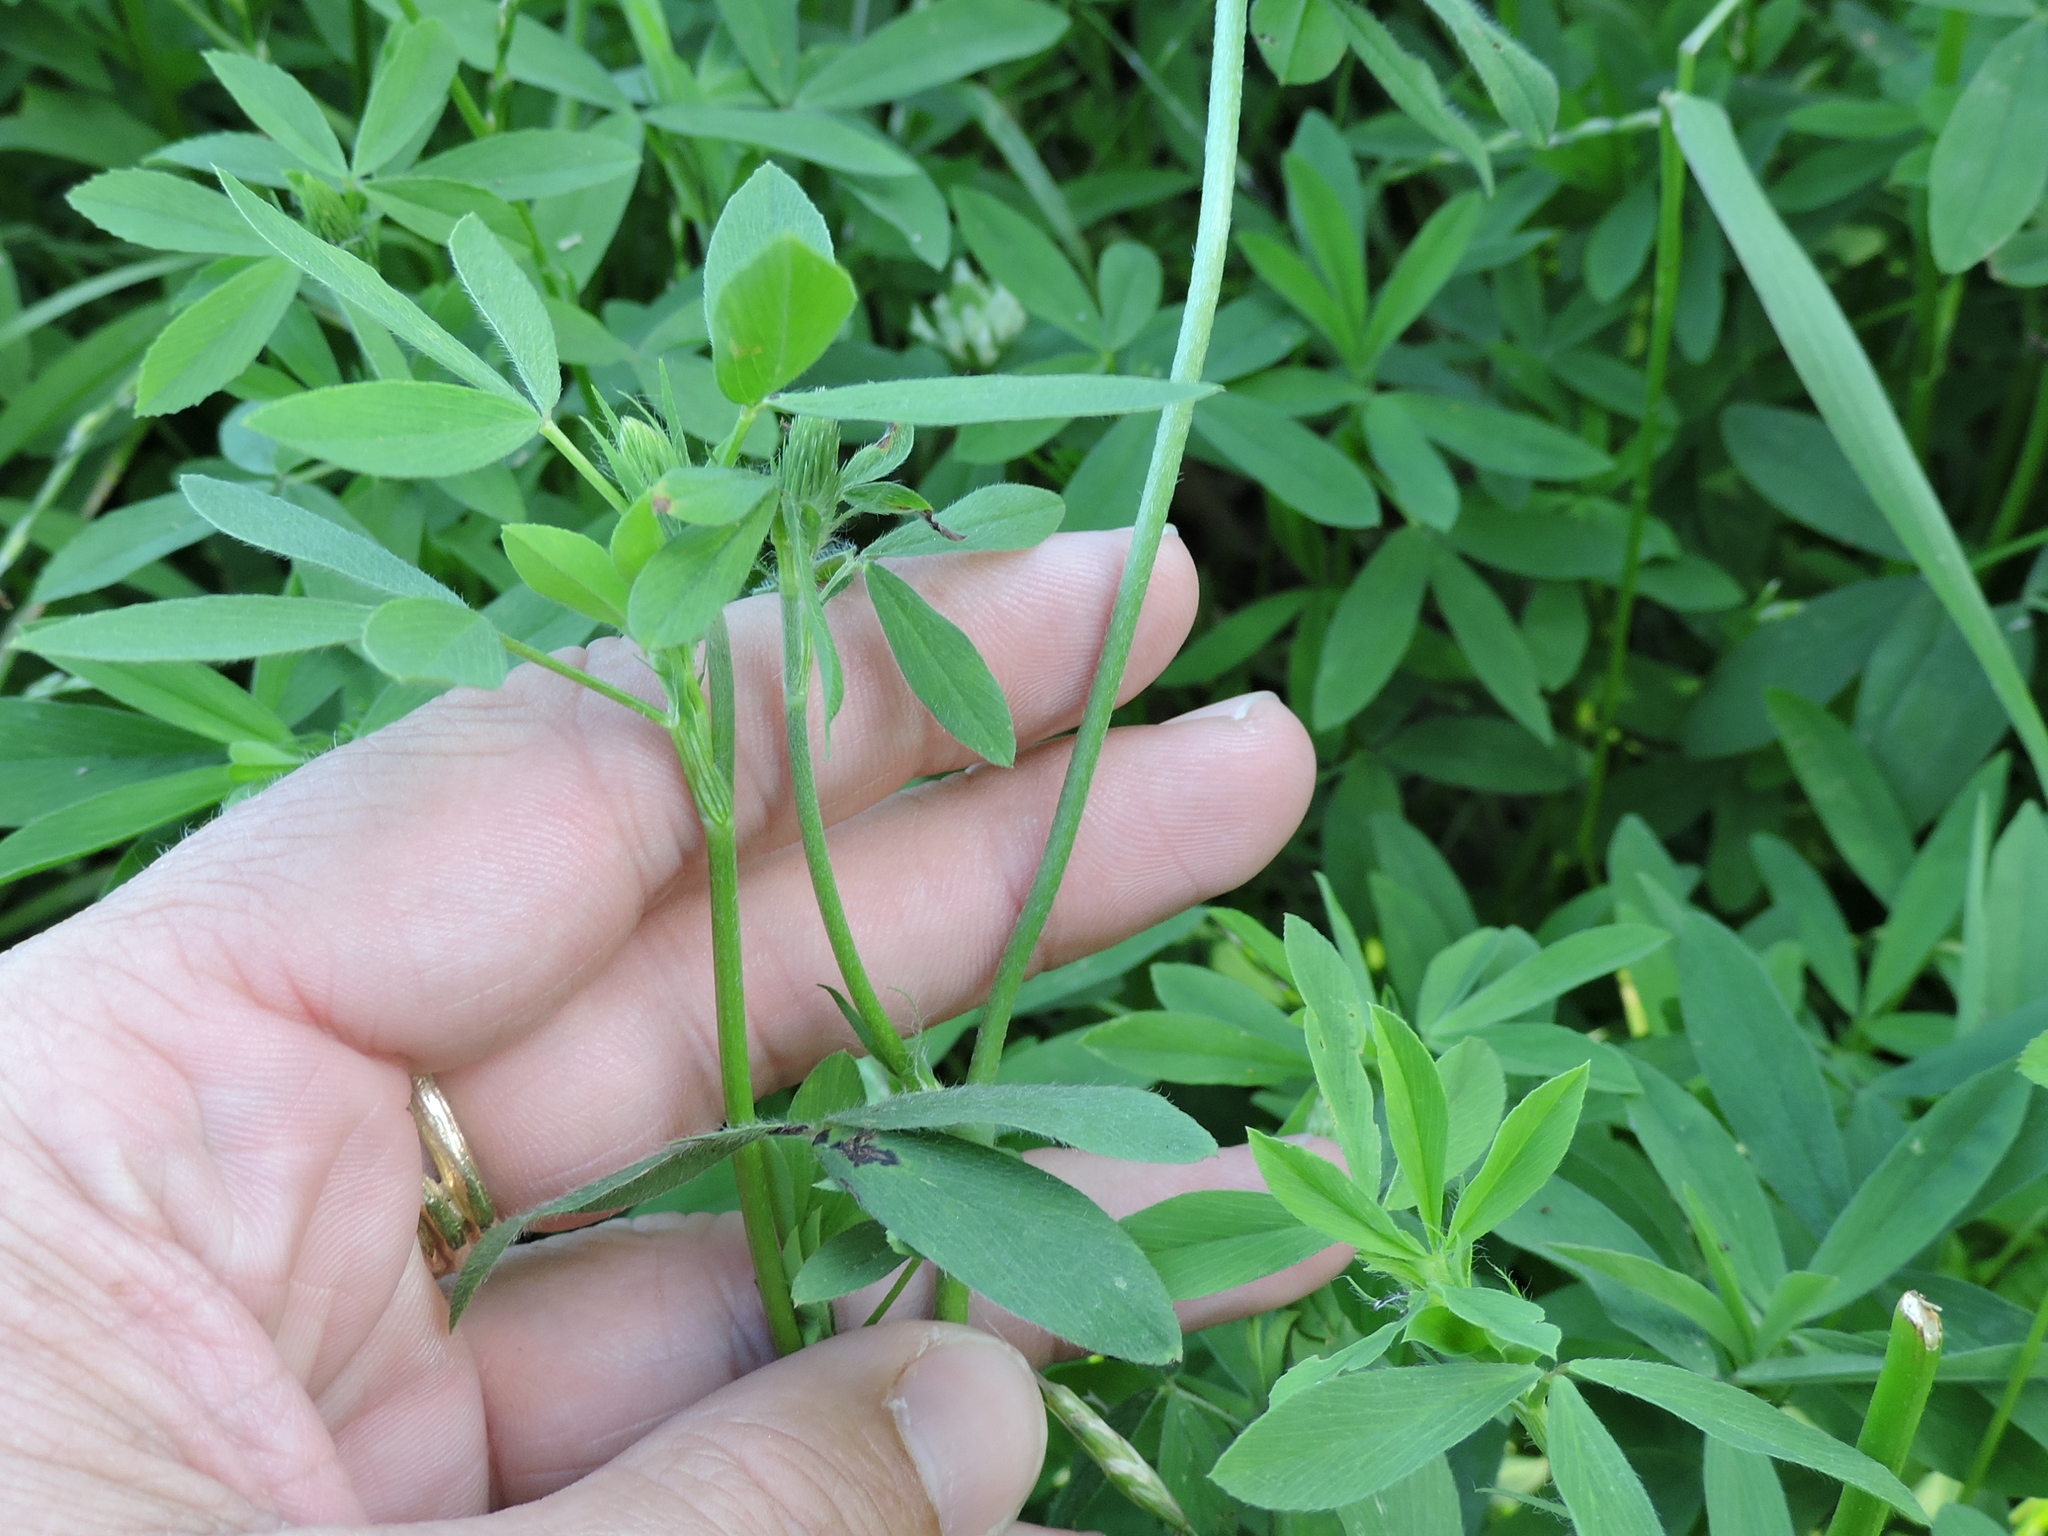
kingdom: Plantae
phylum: Tracheophyta
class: Magnoliopsida
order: Fabales
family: Fabaceae
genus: Trifolium
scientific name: Trifolium alexandrinum
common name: Egyptian clover
